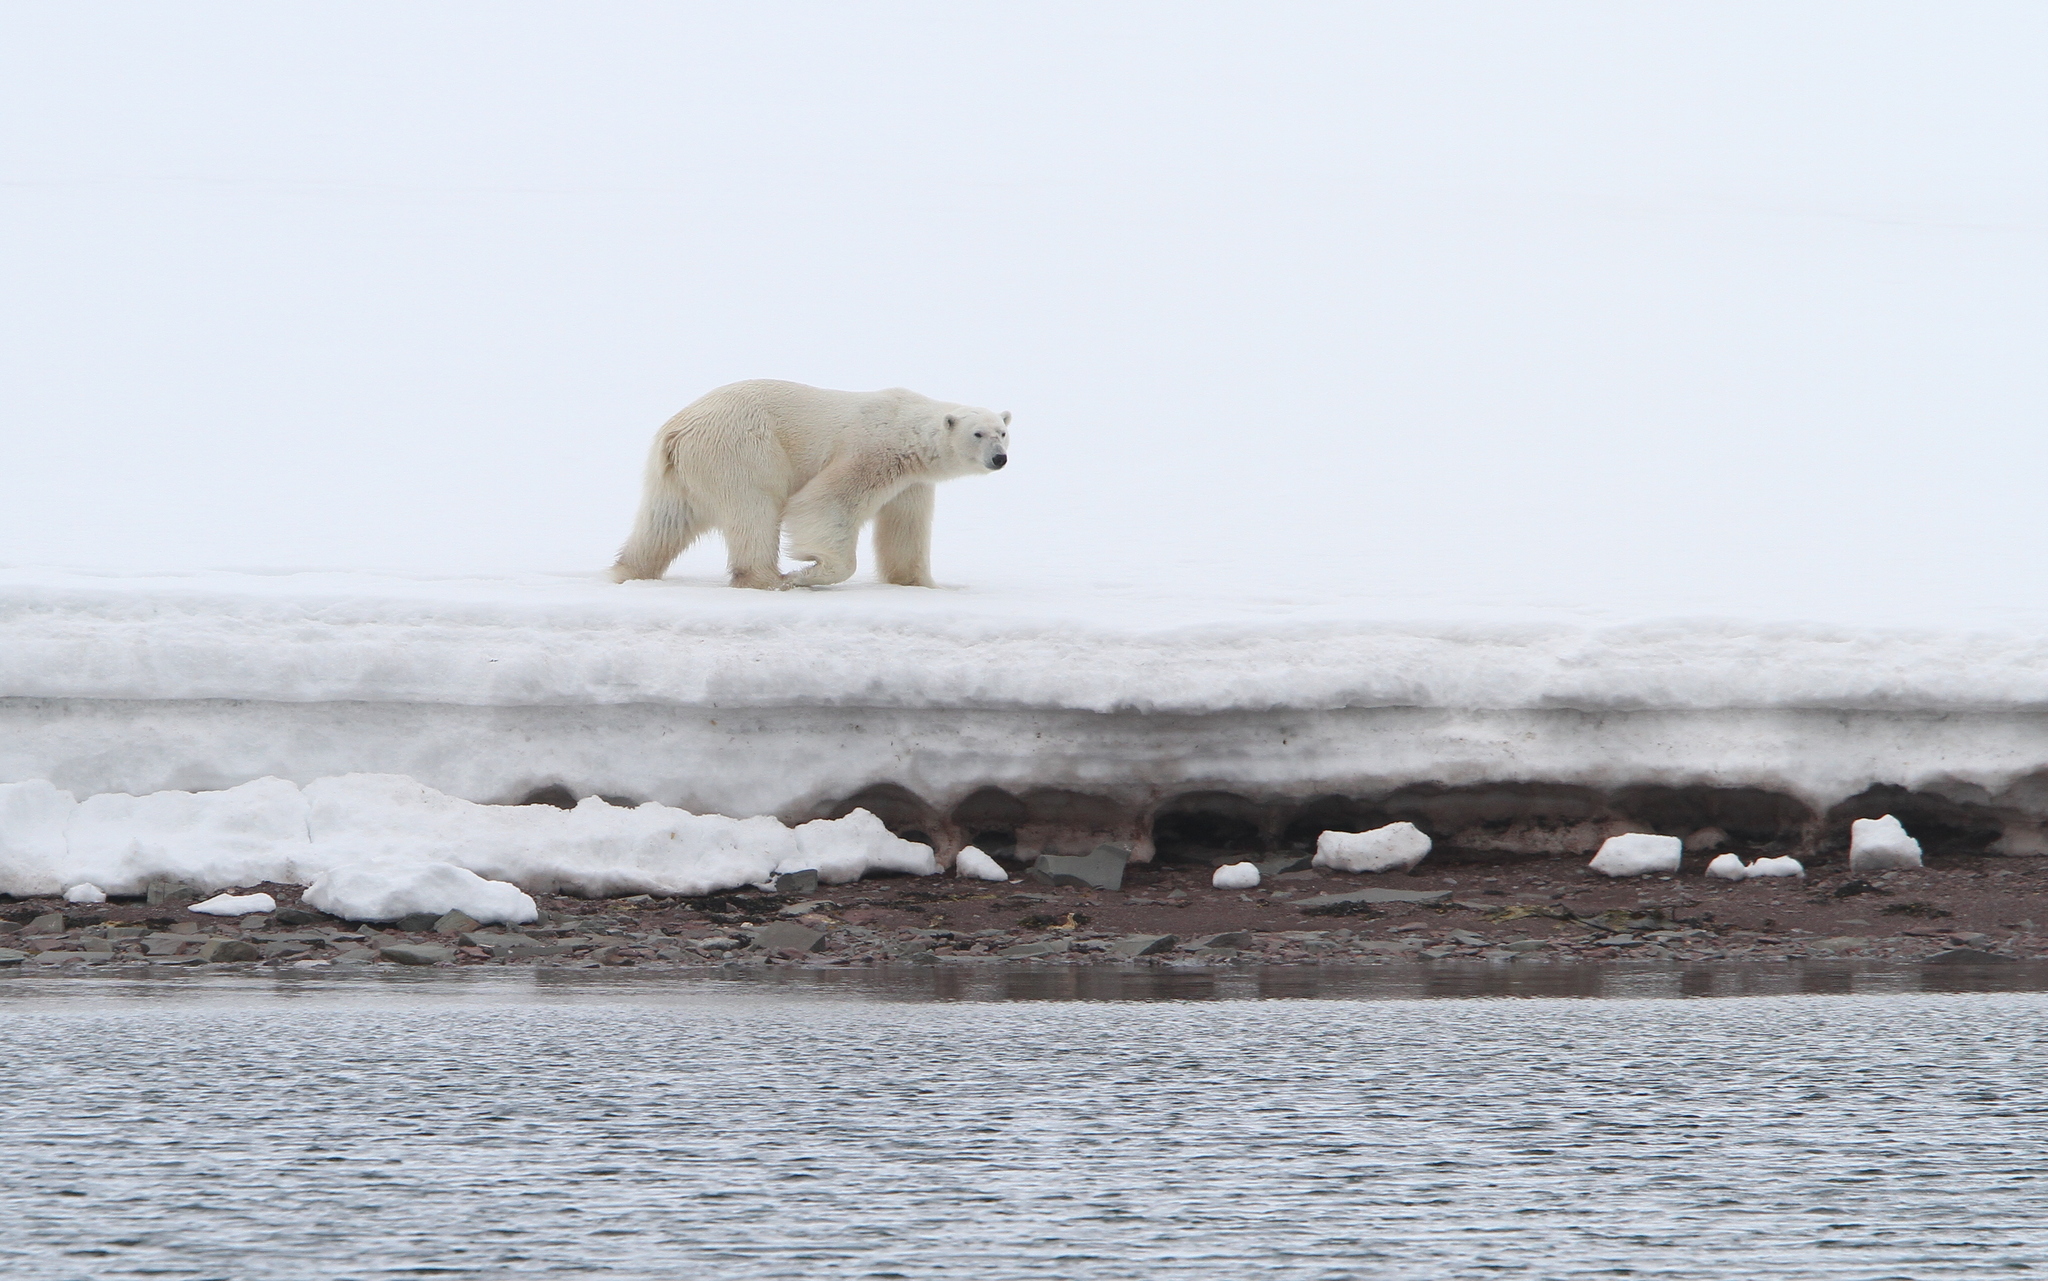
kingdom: Animalia
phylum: Chordata
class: Mammalia
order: Carnivora
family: Ursidae
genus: Ursus
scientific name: Ursus maritimus
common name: Polar bear
